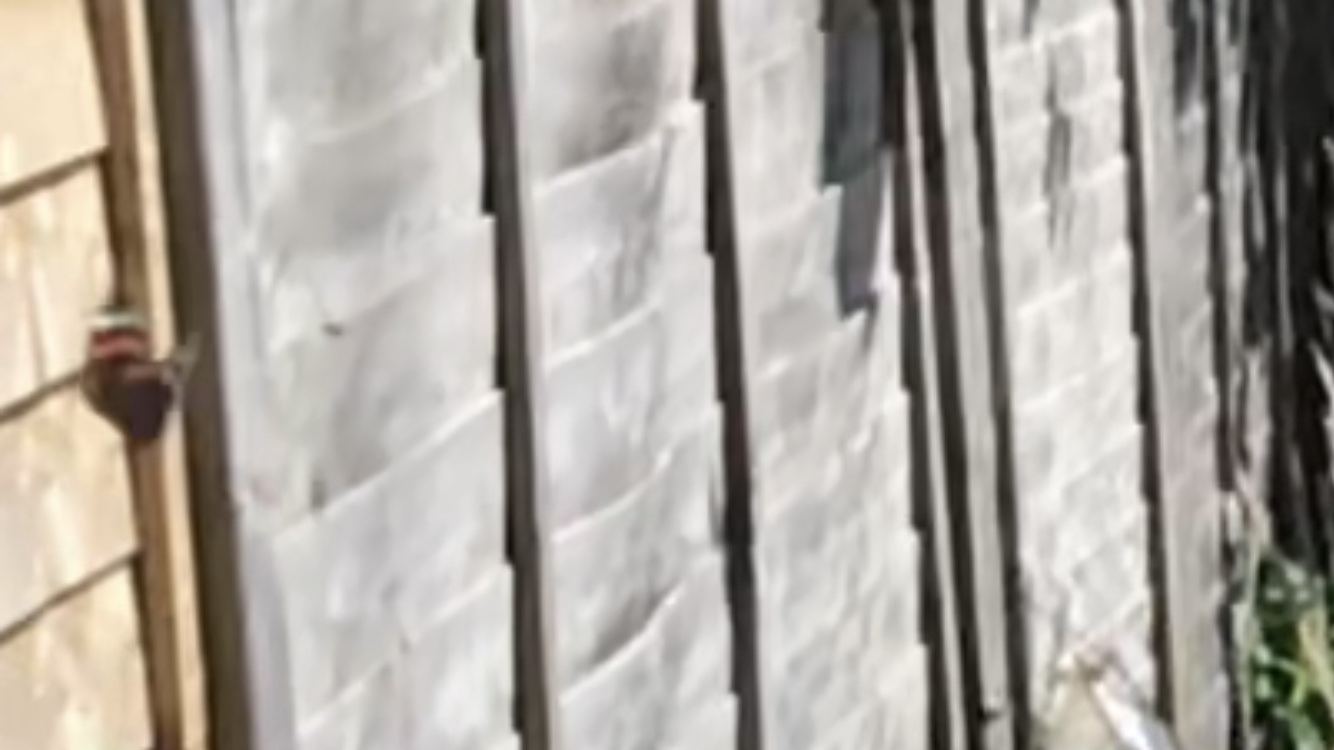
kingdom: Animalia
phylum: Arthropoda
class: Insecta
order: Lepidoptera
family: Nymphalidae
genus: Vanessa
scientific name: Vanessa atalanta
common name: Red admiral
